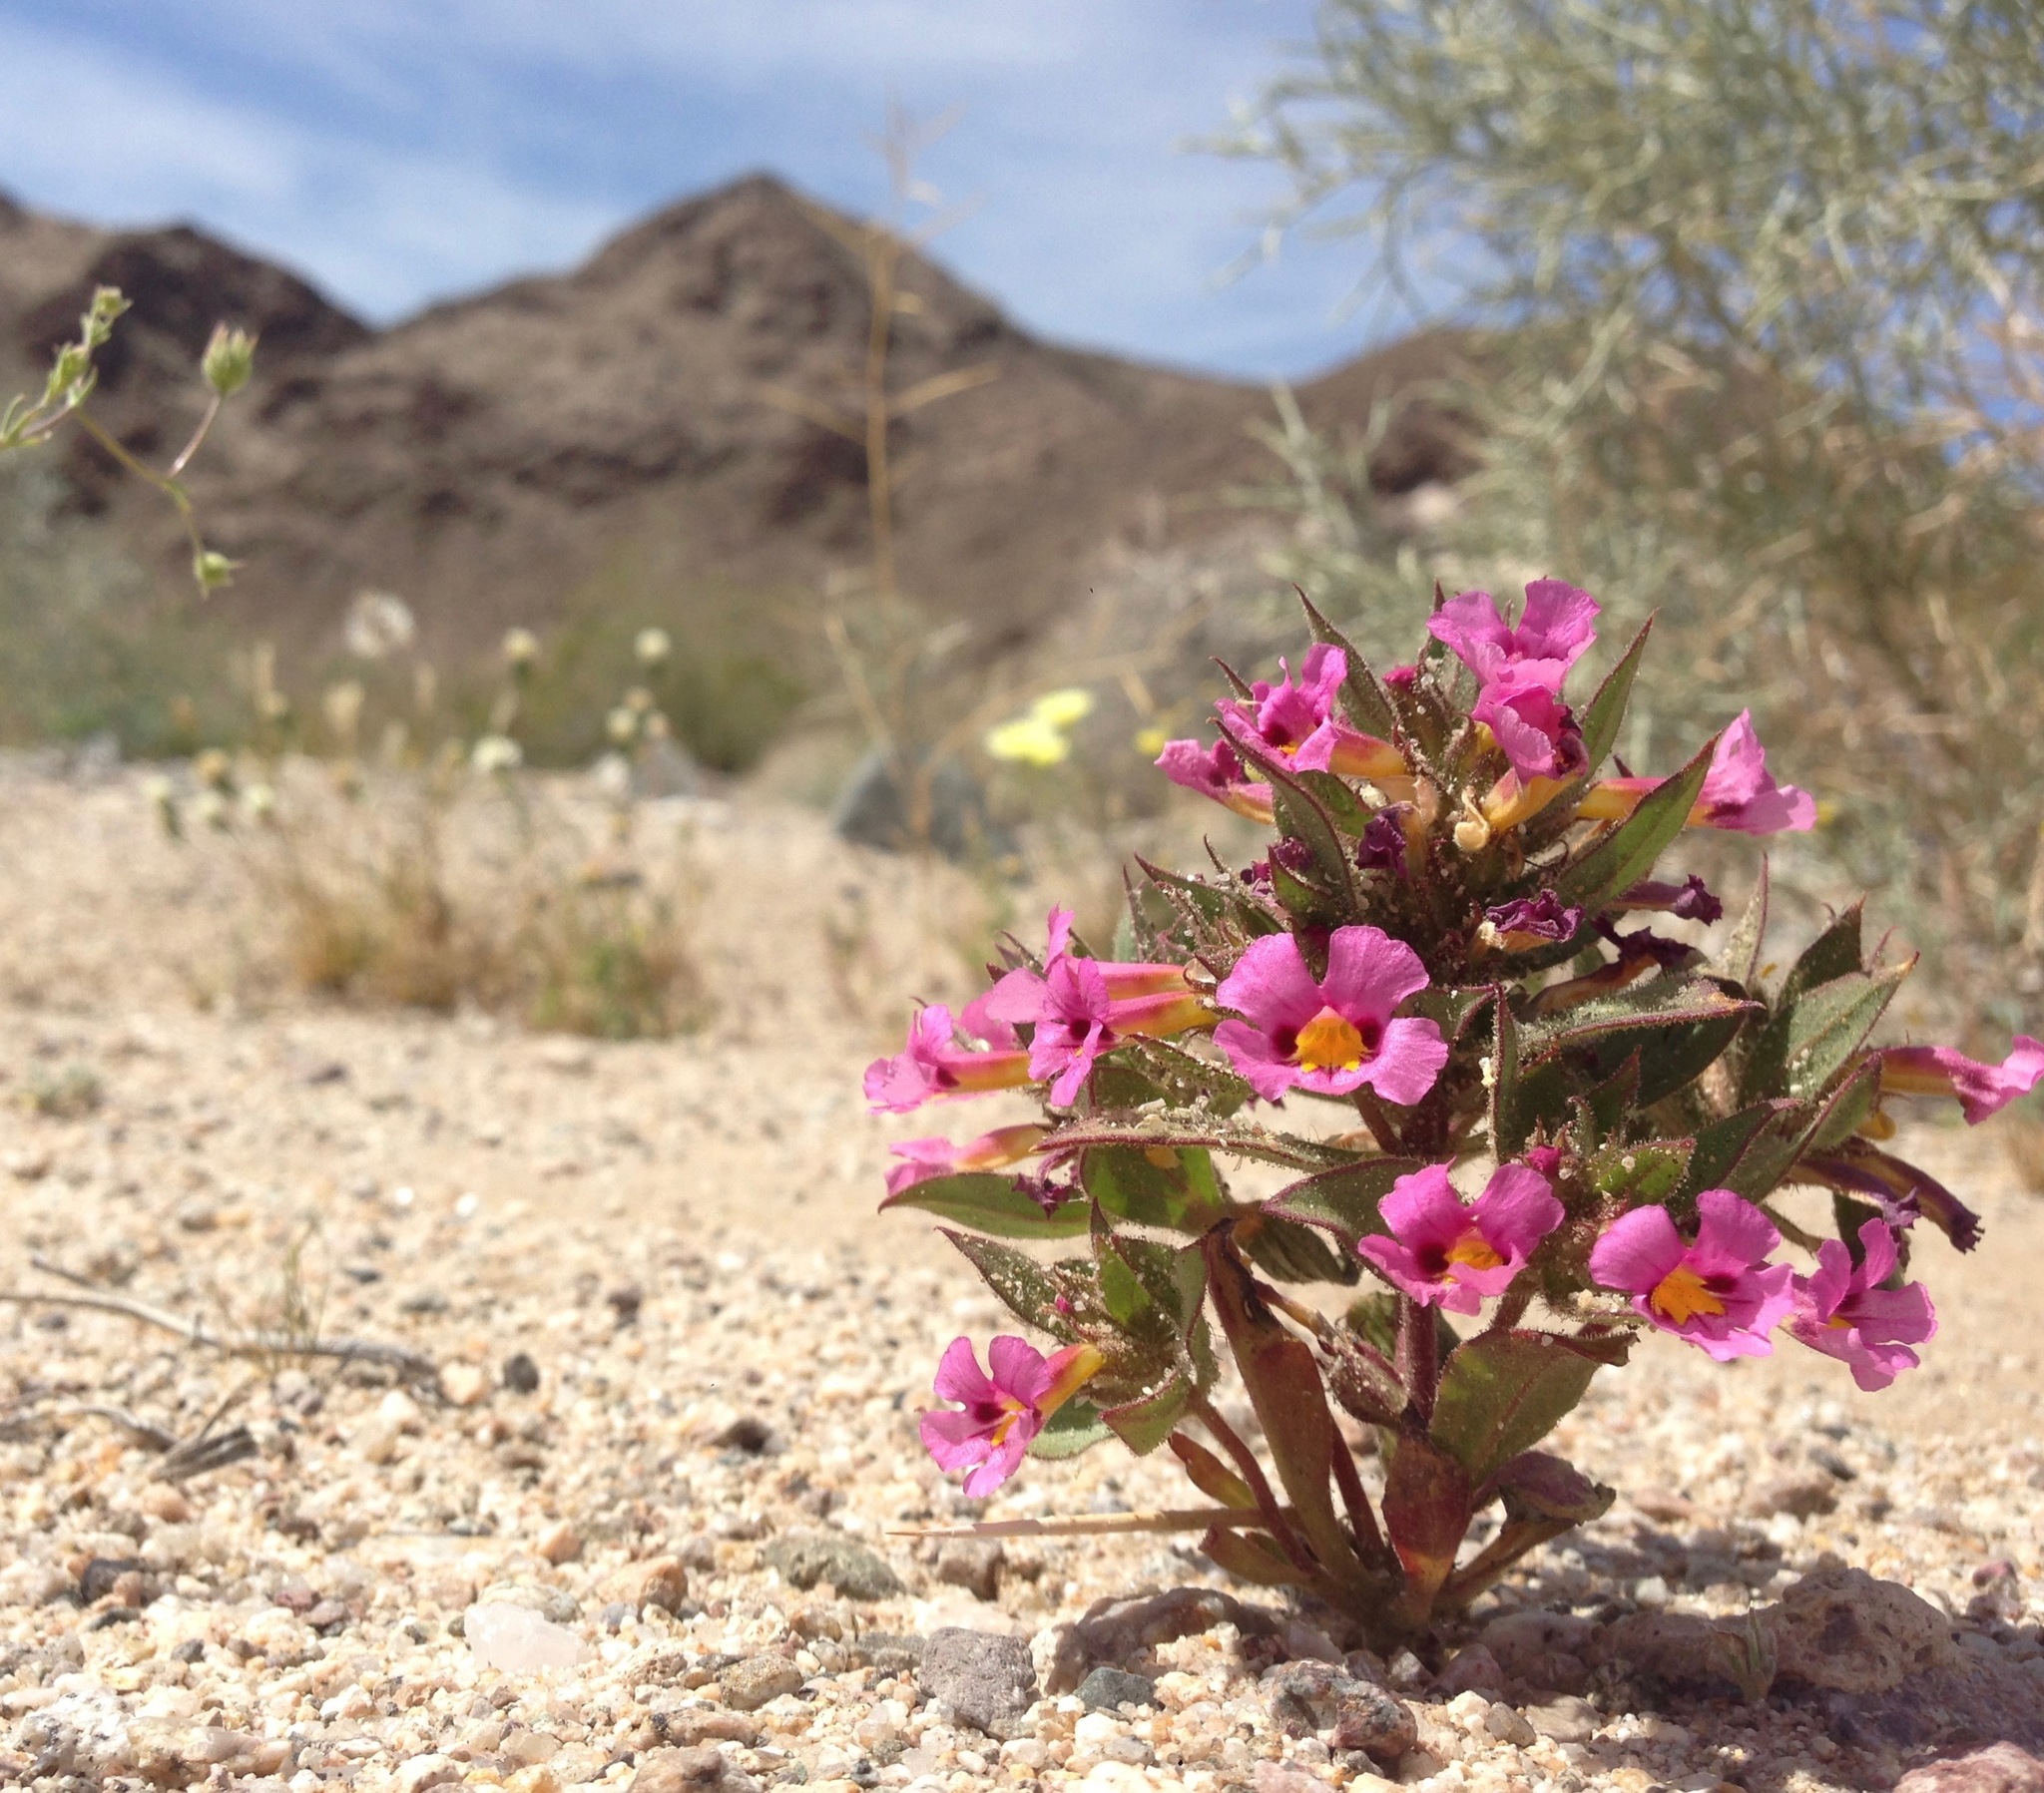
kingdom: Plantae
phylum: Tracheophyta
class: Magnoliopsida
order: Lamiales
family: Phrymaceae
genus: Diplacus
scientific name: Diplacus bigelovii
